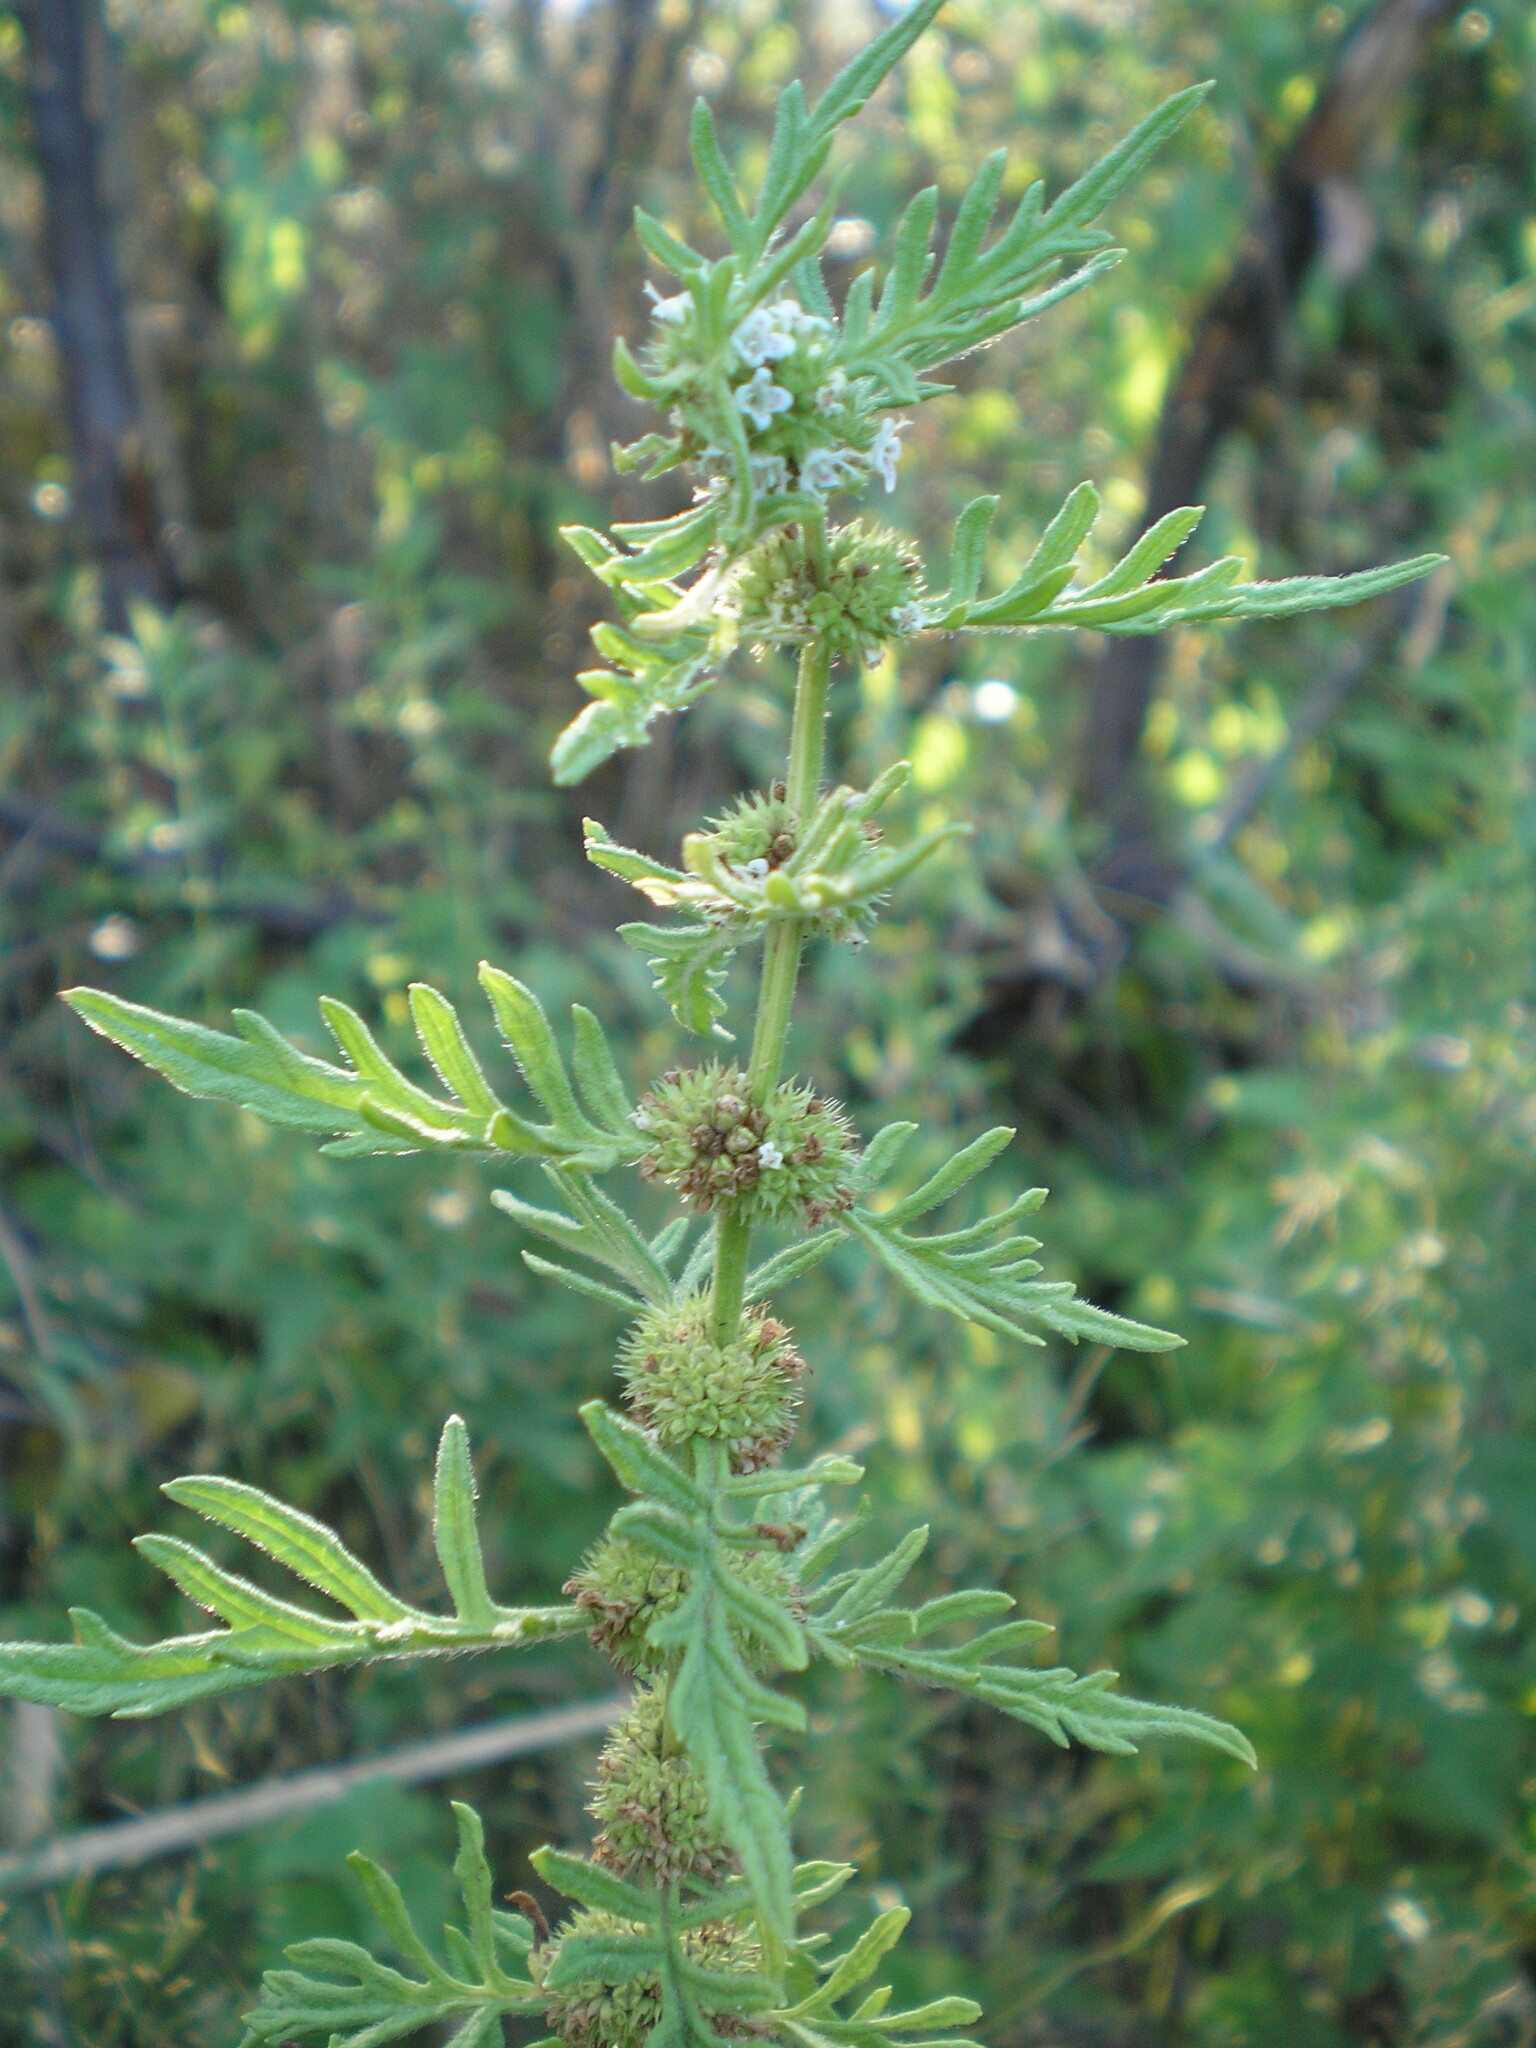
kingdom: Plantae
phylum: Tracheophyta
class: Magnoliopsida
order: Lamiales
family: Lamiaceae
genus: Lycopus
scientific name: Lycopus exaltatus
